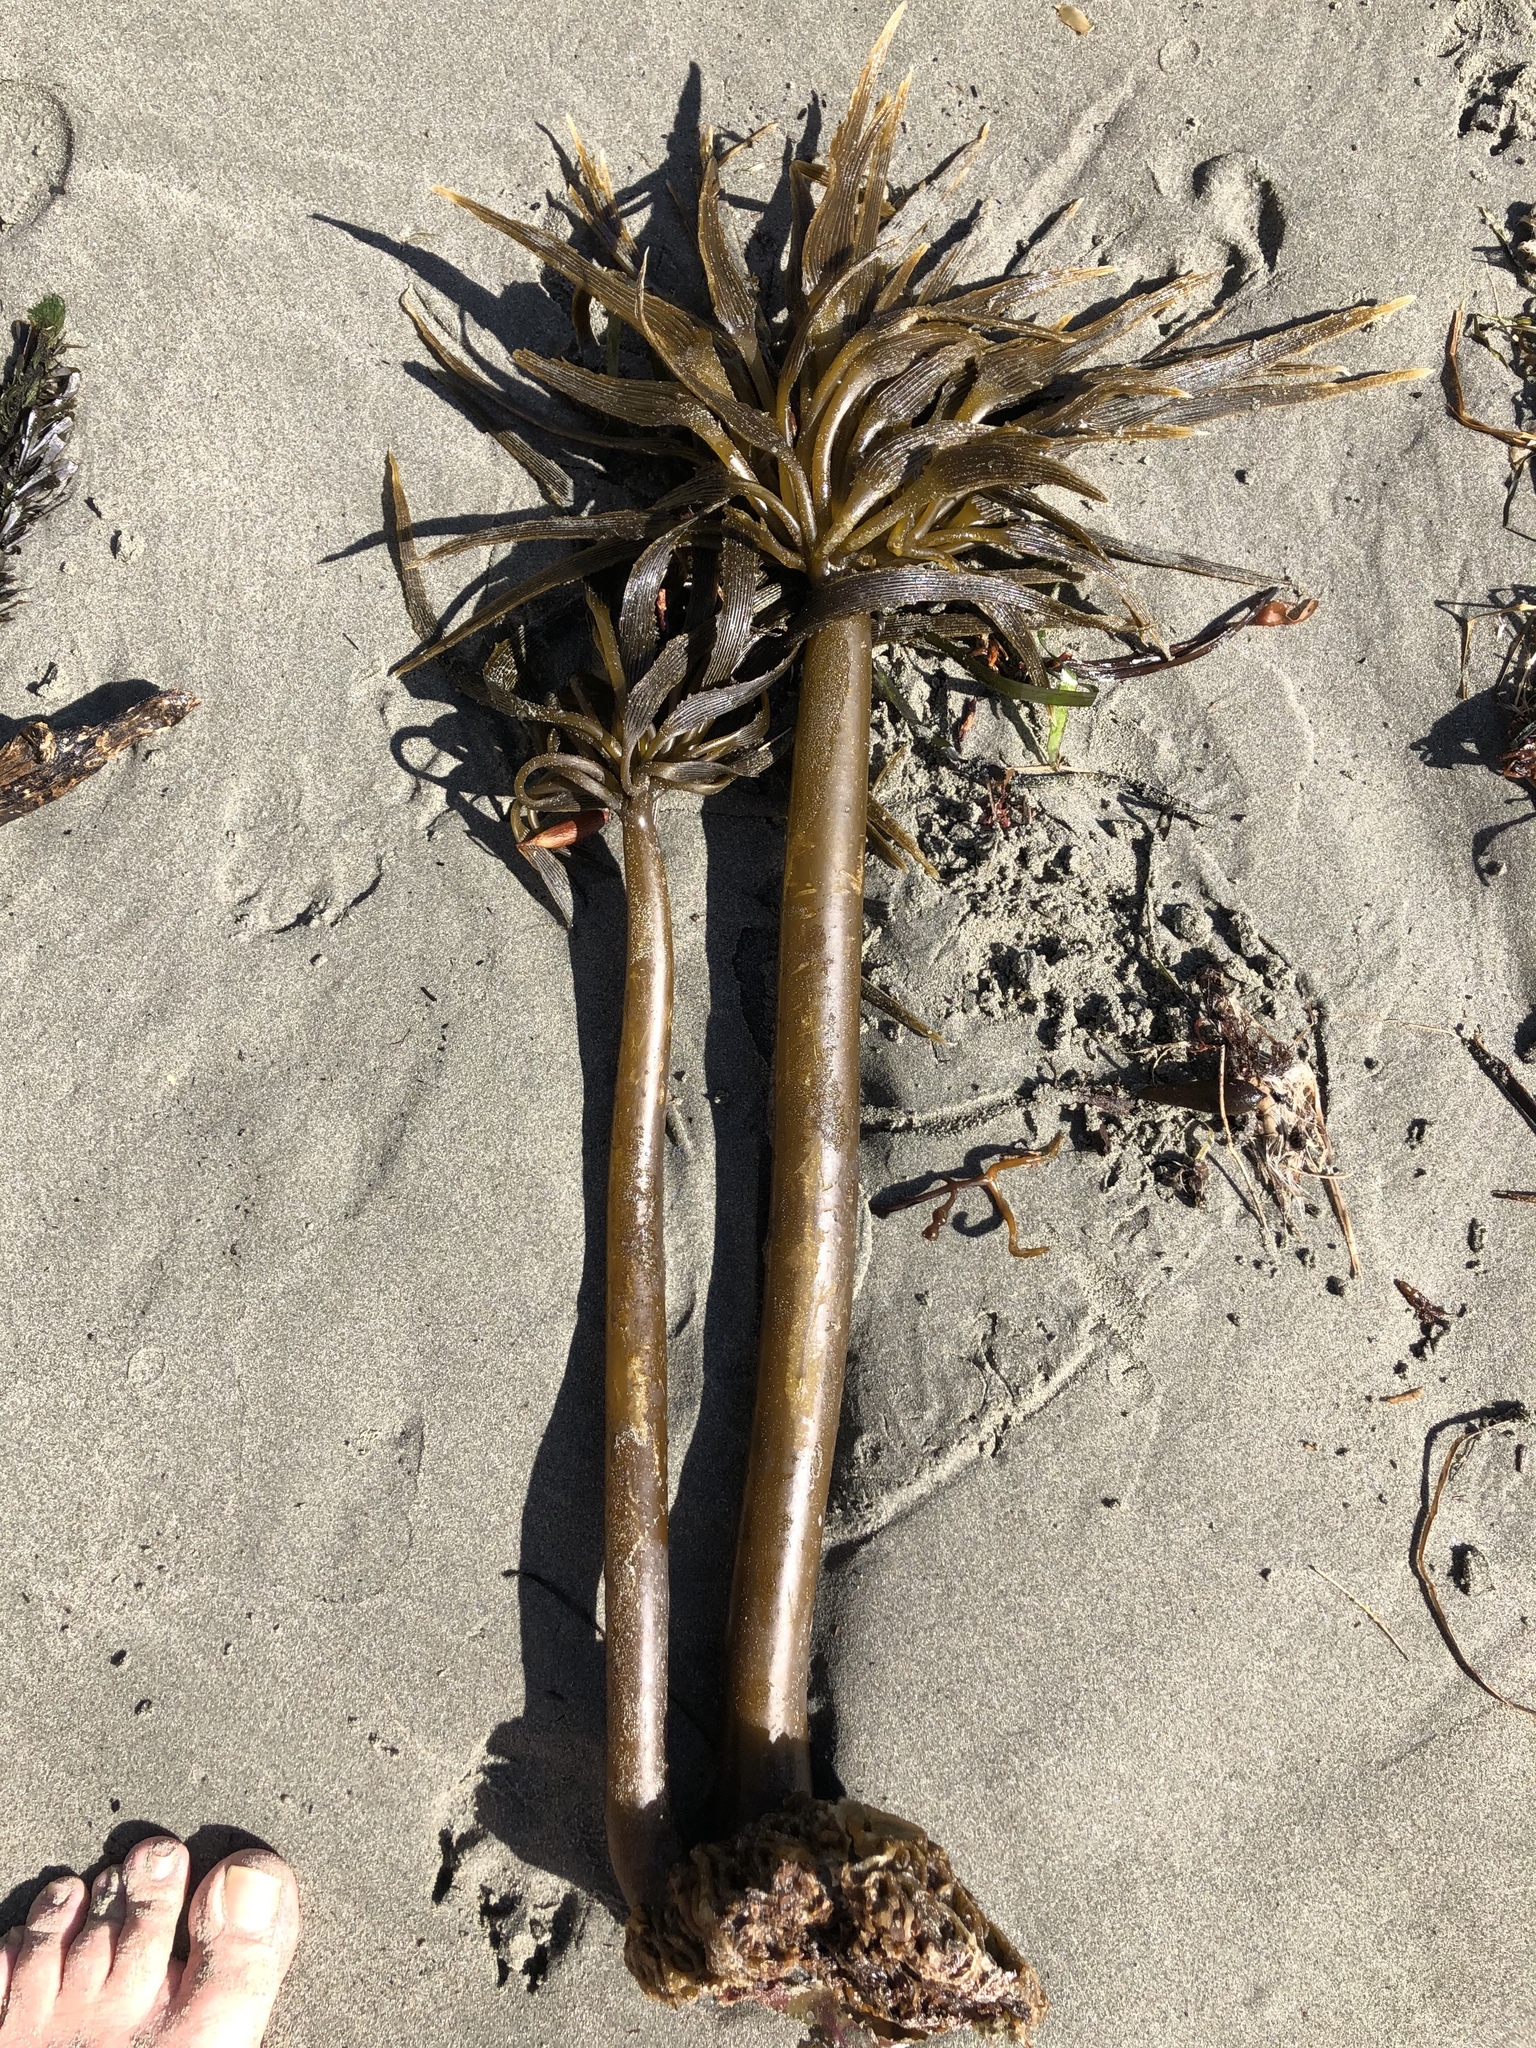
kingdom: Chromista
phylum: Ochrophyta
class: Phaeophyceae
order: Laminariales
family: Laminariaceae
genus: Postelsia
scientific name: Postelsia palmiformis
